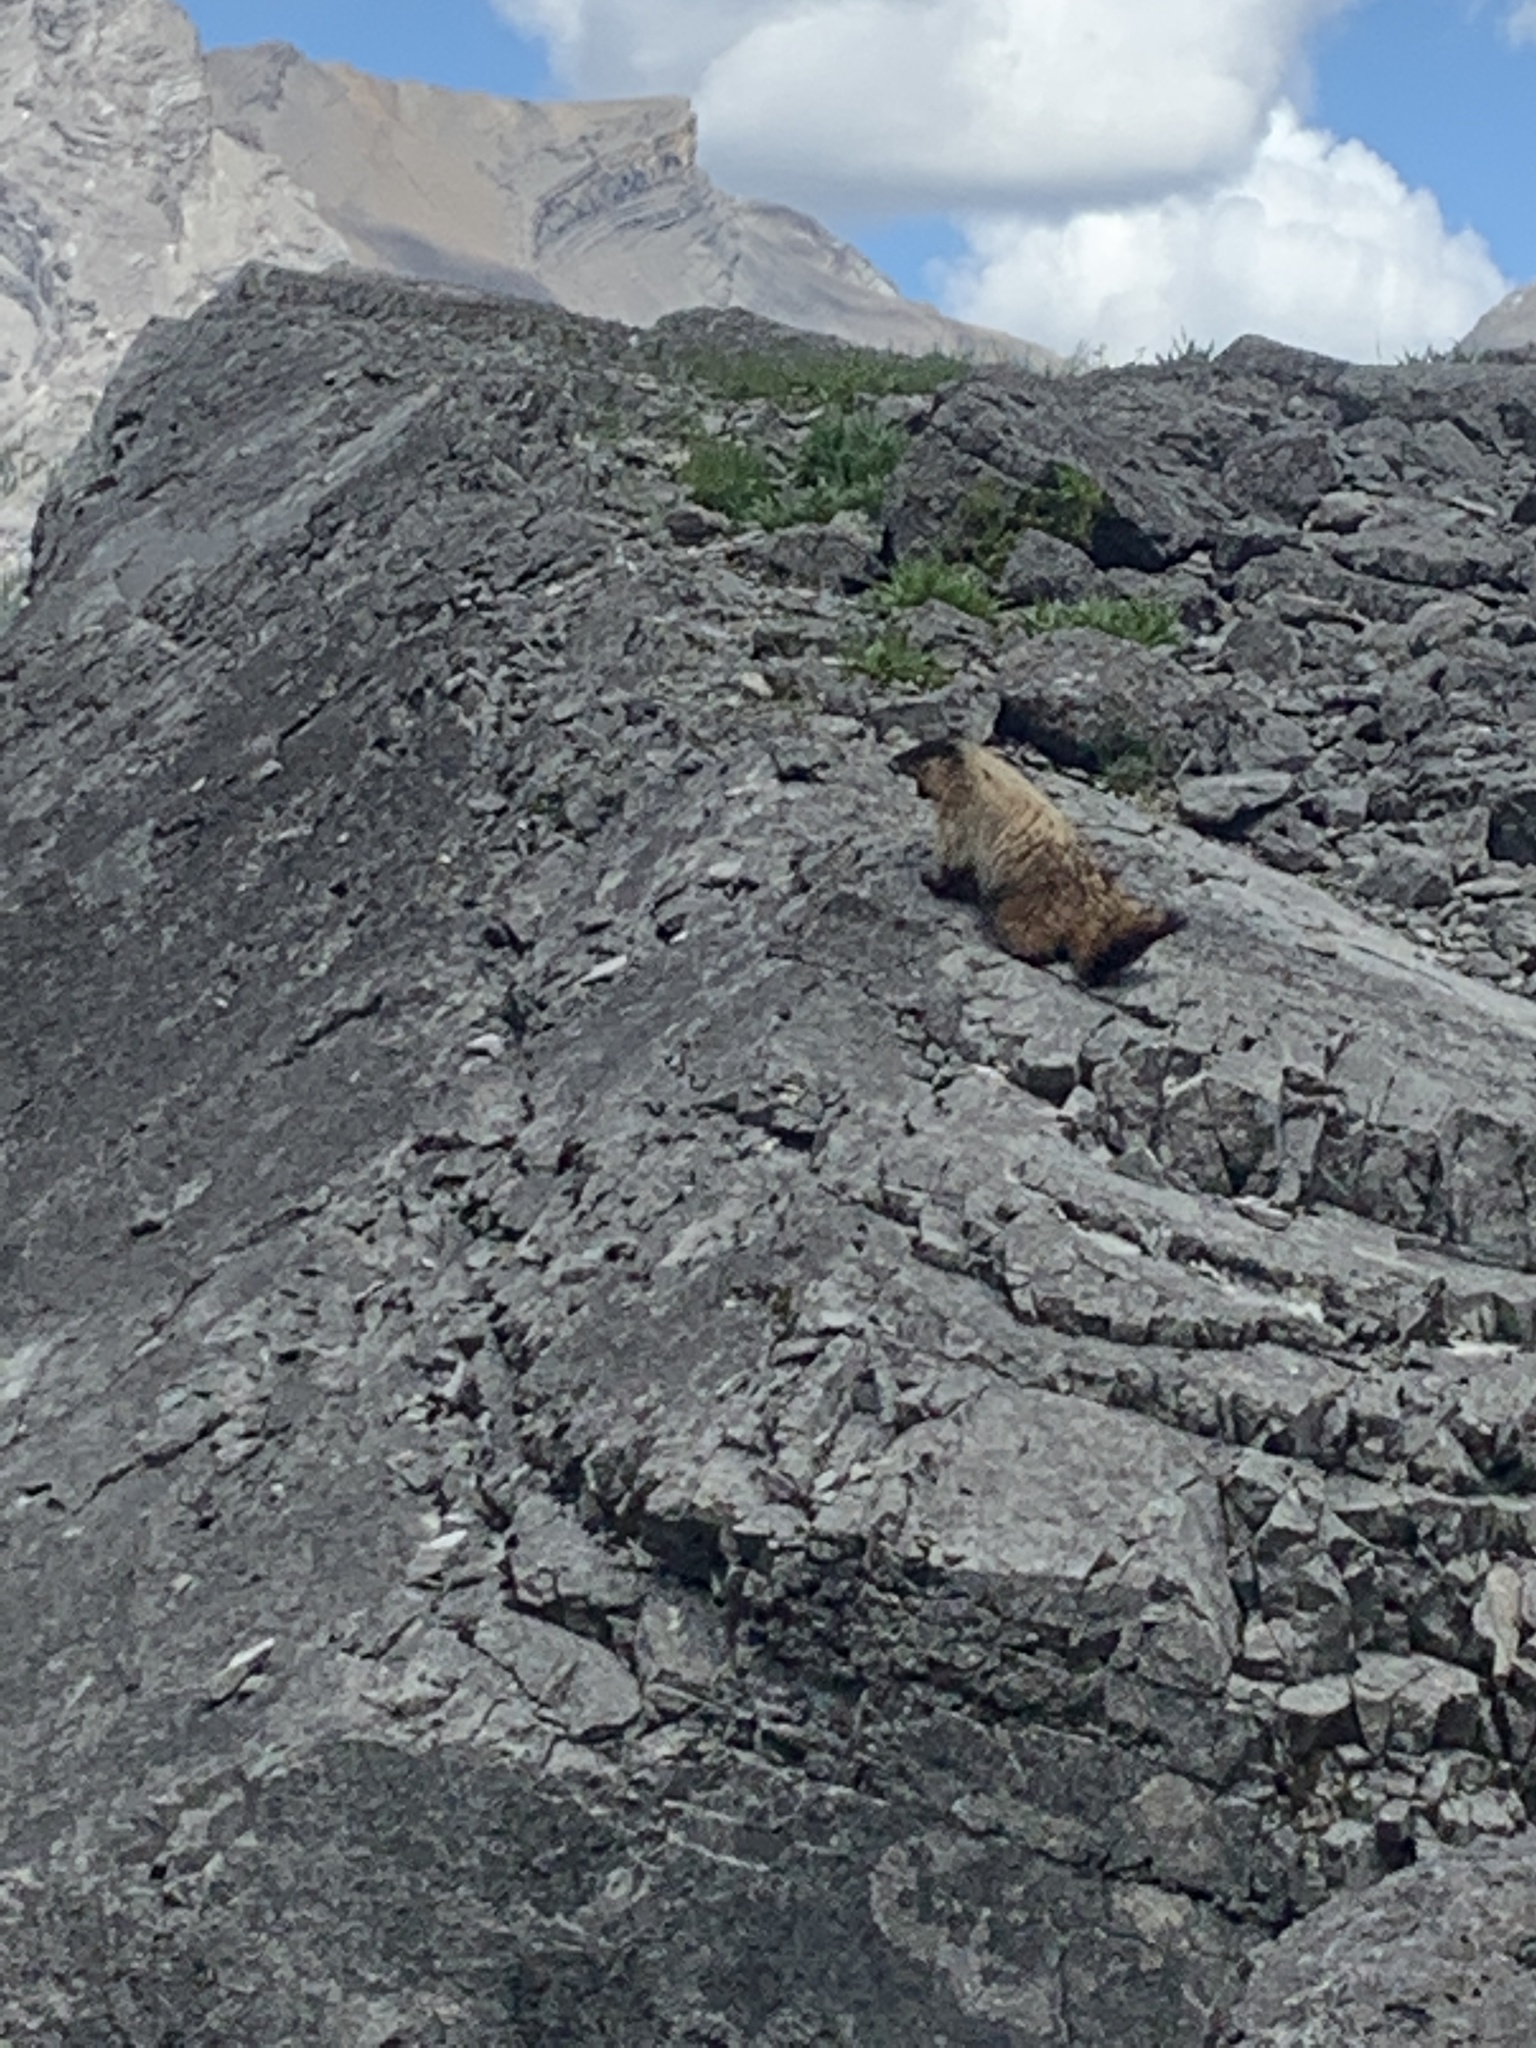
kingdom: Animalia
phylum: Chordata
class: Mammalia
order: Rodentia
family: Sciuridae
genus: Marmota
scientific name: Marmota caligata
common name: Hoary marmot
